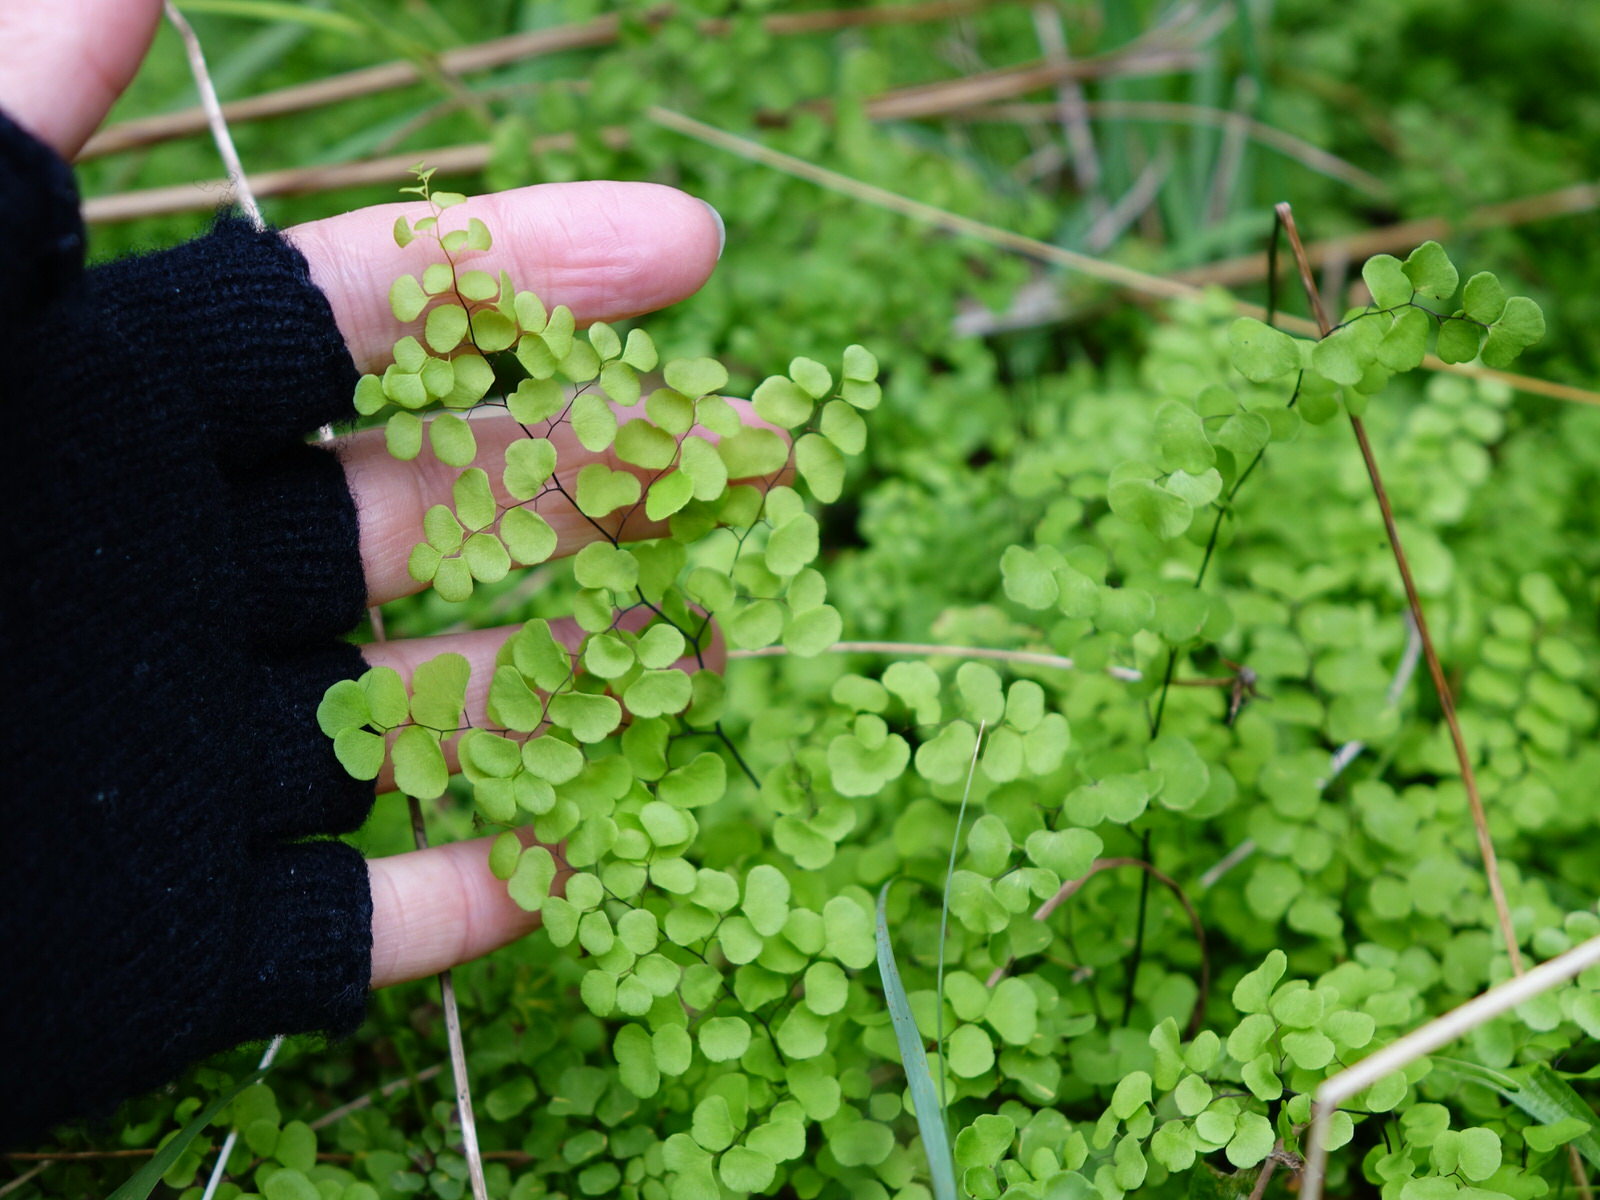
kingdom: Plantae
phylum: Tracheophyta
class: Polypodiopsida
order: Polypodiales
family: Pteridaceae
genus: Adiantum
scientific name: Adiantum aethiopicum
